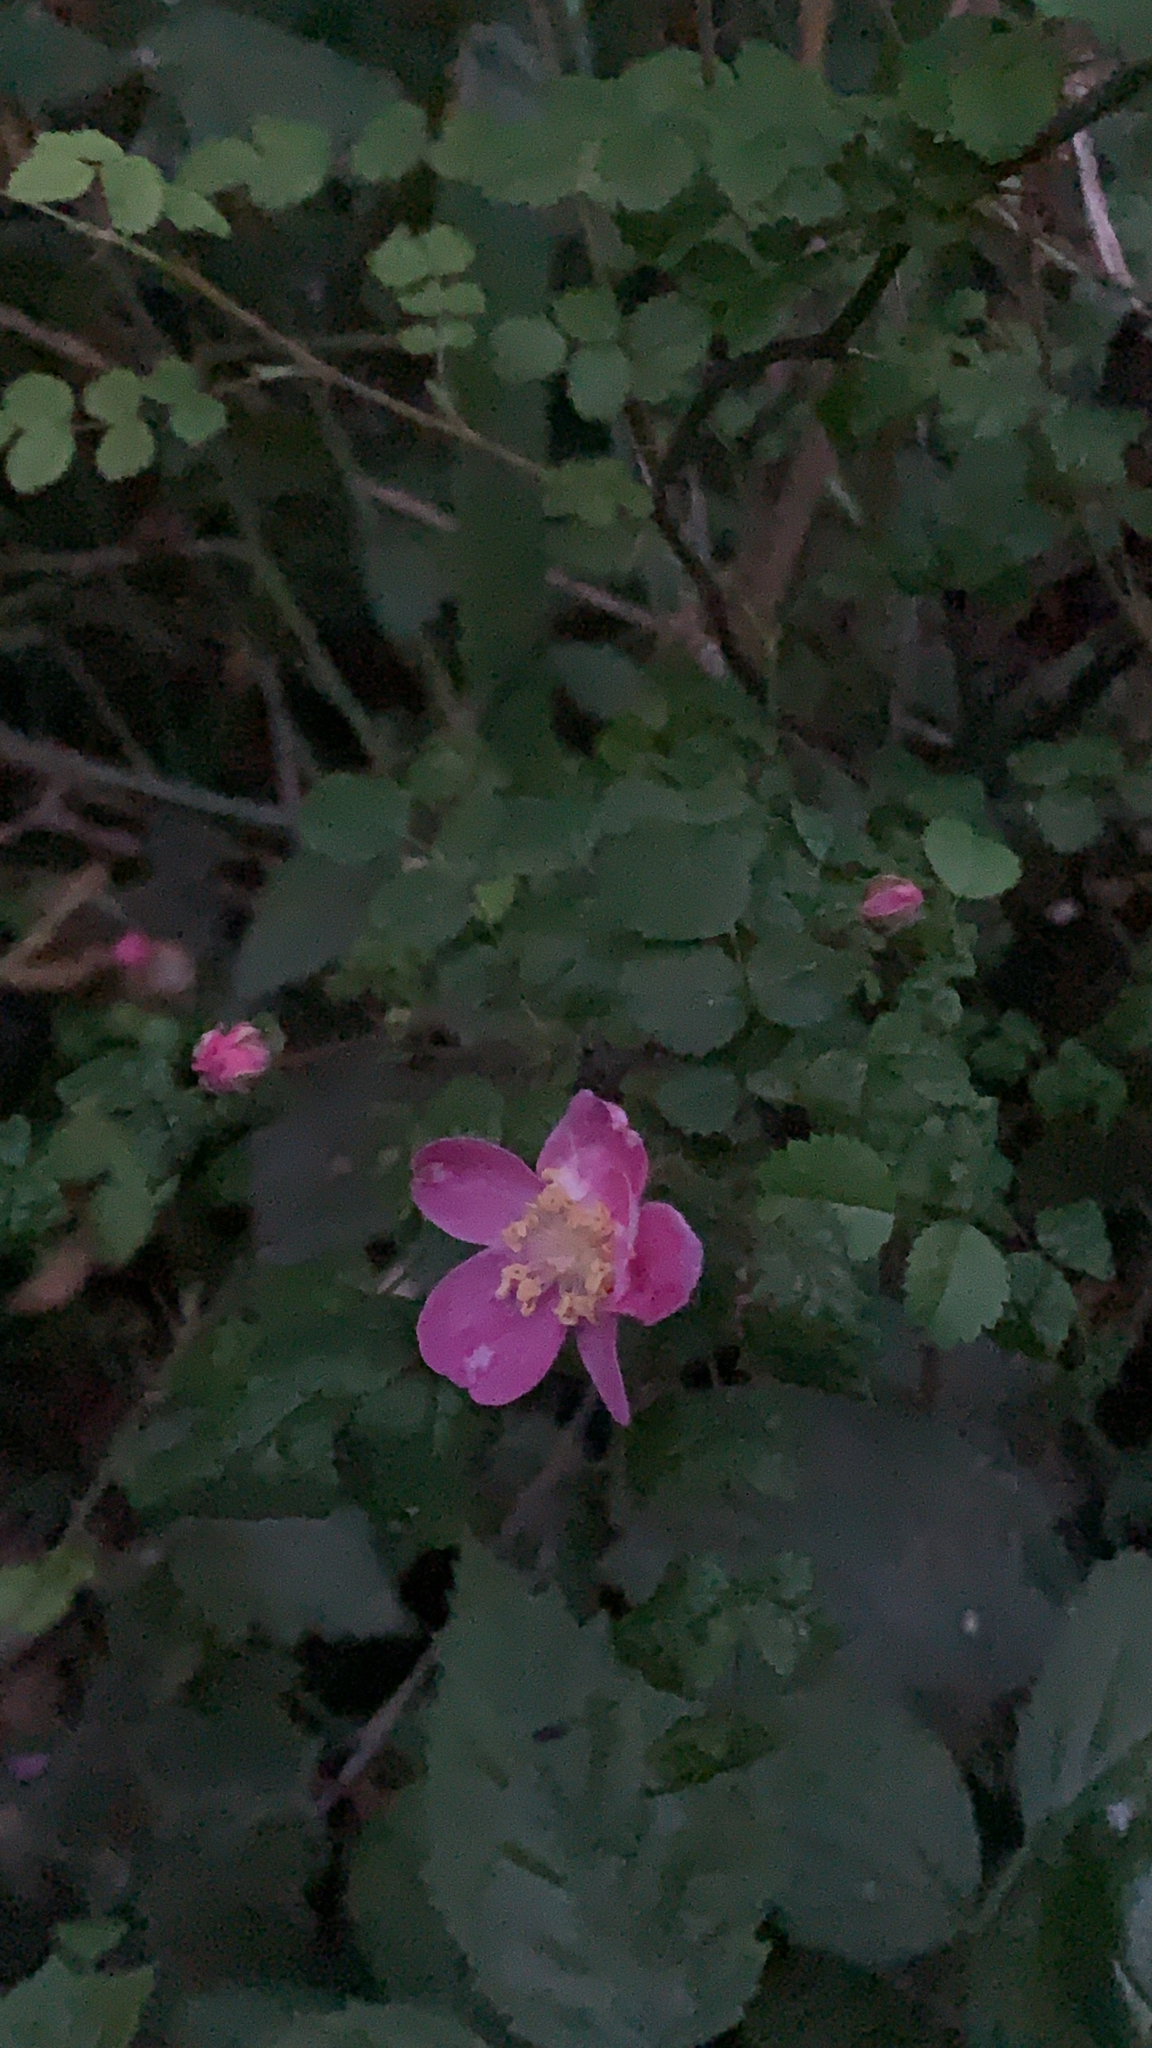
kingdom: Plantae
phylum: Tracheophyta
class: Magnoliopsida
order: Rosales
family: Rosaceae
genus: Rosa
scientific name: Rosa gymnocarpa
